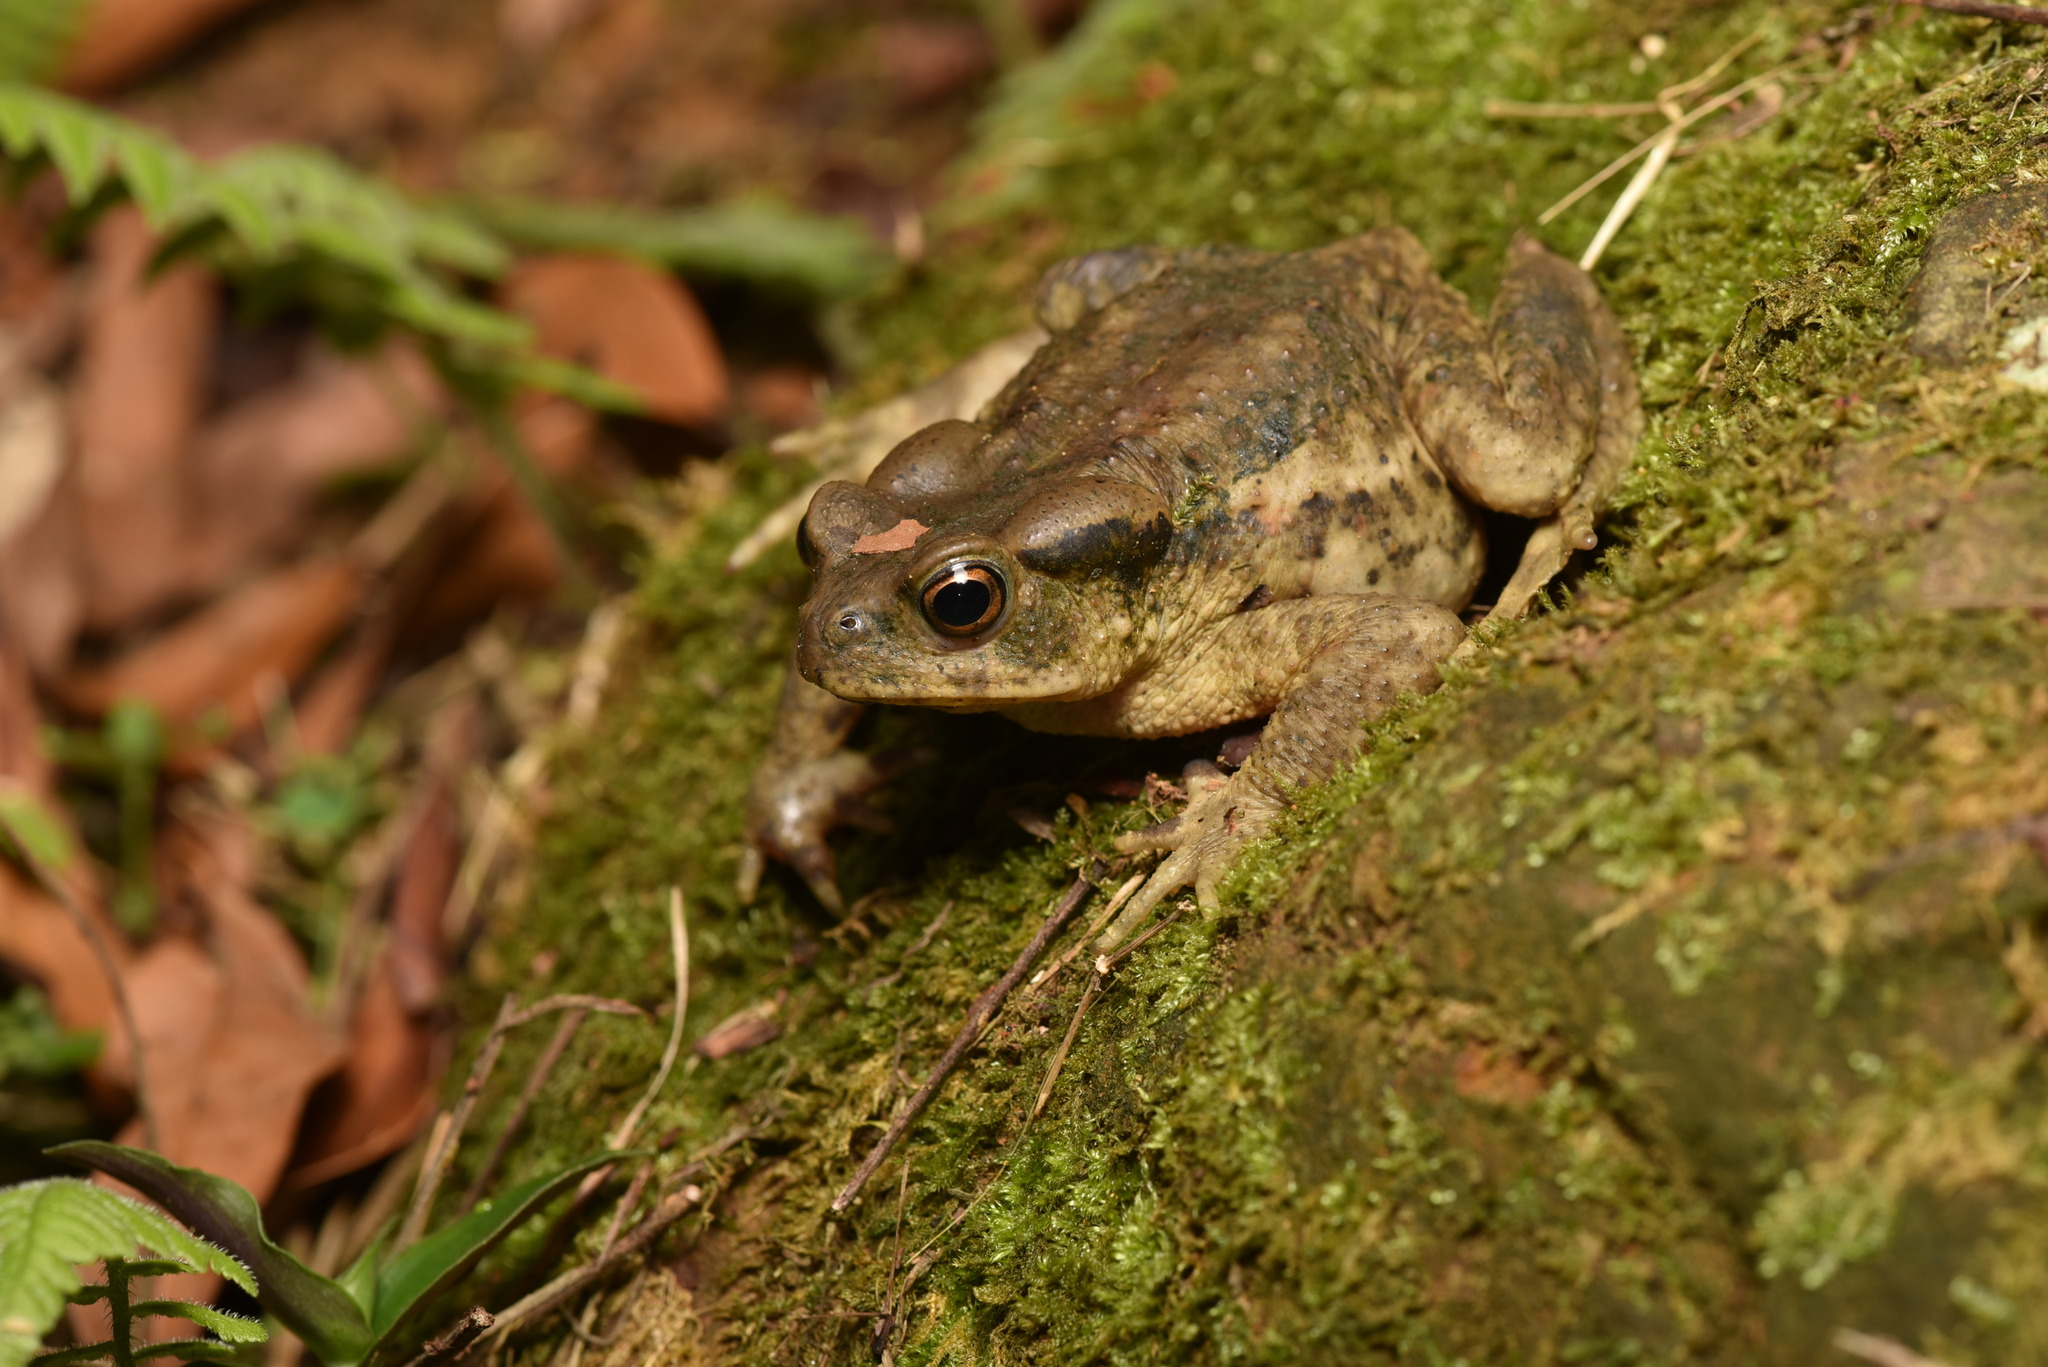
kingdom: Animalia
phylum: Chordata
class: Amphibia
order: Anura
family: Bufonidae
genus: Bufo
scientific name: Bufo bankorensis
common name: Bankor toad
